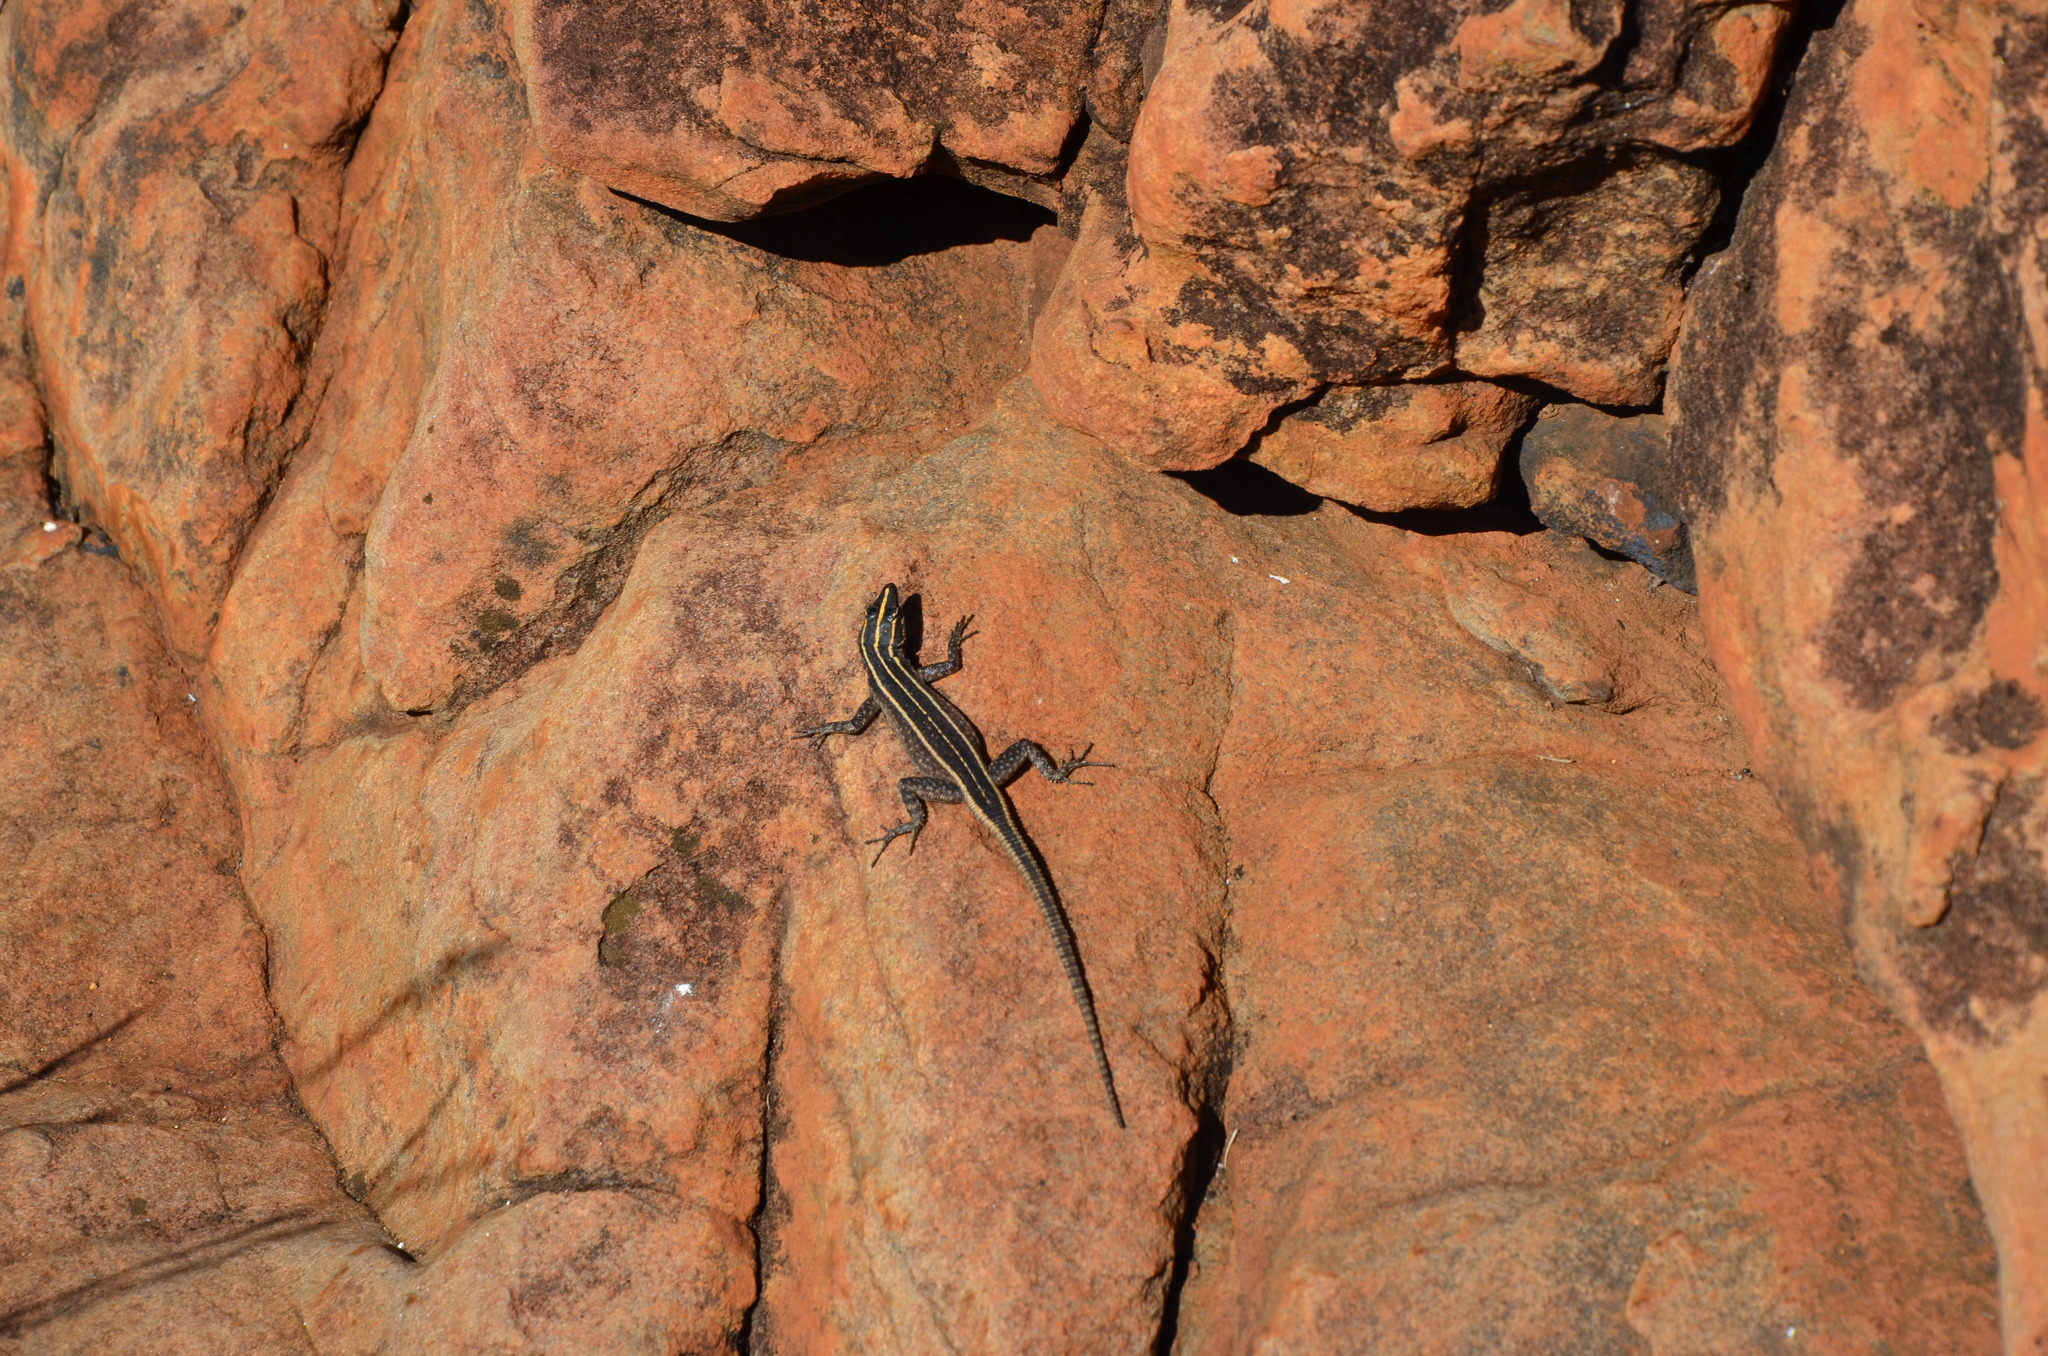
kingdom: Animalia
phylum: Chordata
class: Squamata
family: Cordylidae
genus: Platysaurus
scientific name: Platysaurus orientalis
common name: Sekhukune flat lizard
